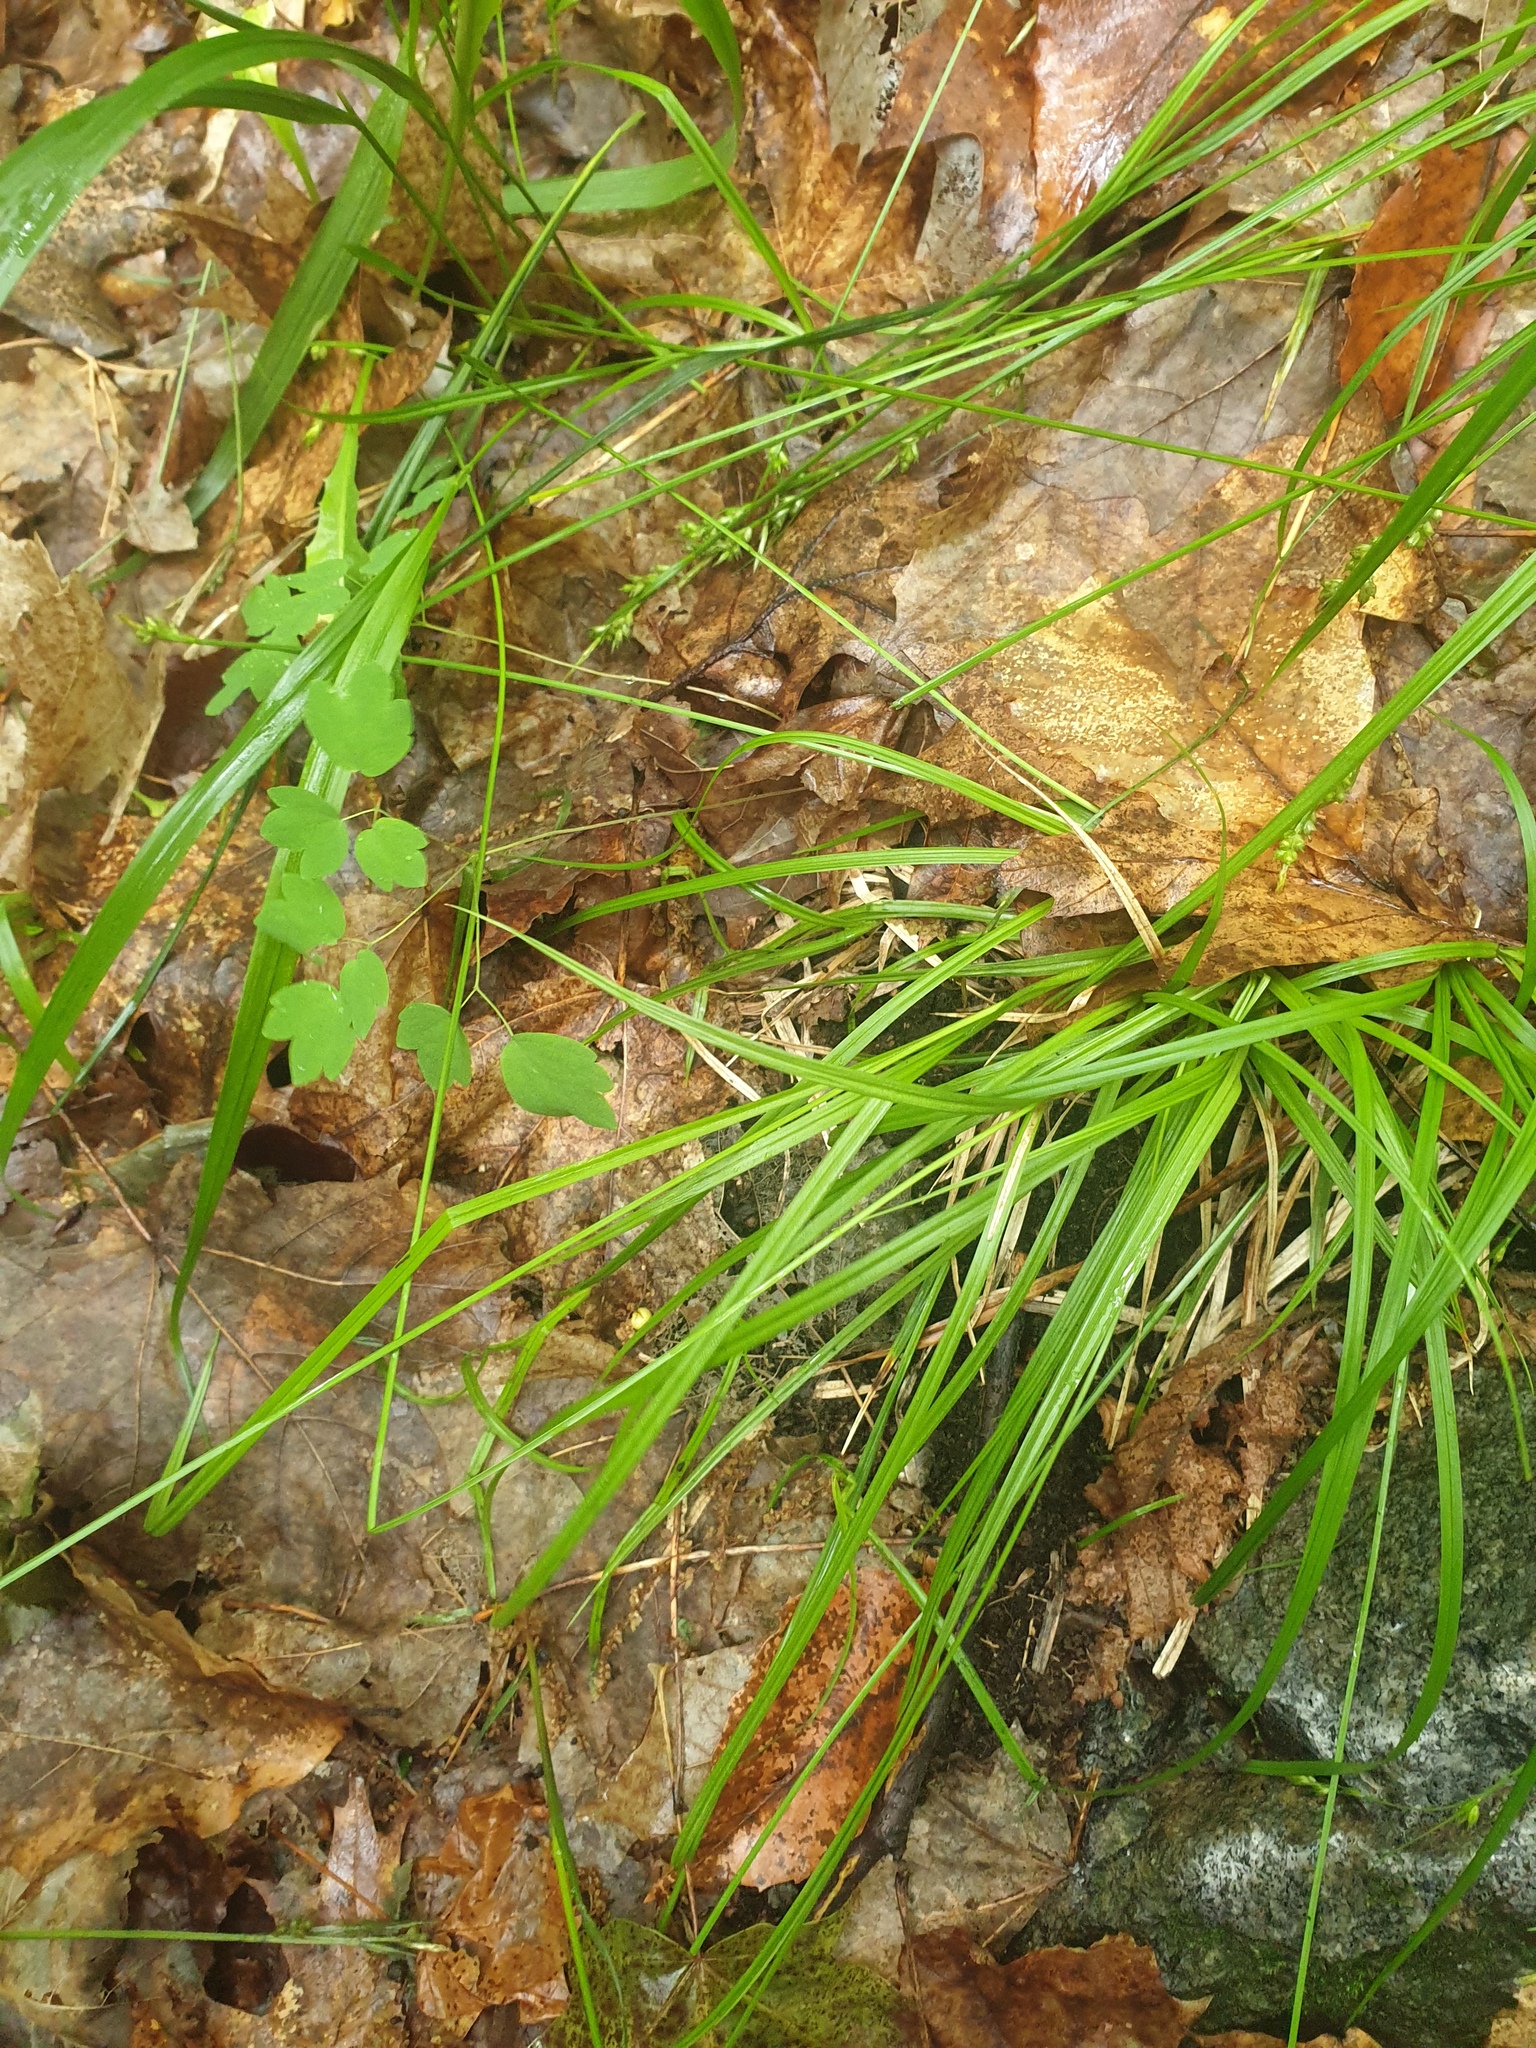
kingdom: Plantae
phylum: Tracheophyta
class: Liliopsida
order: Poales
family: Cyperaceae
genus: Carex
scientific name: Carex deweyana
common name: Dewey's sedge
